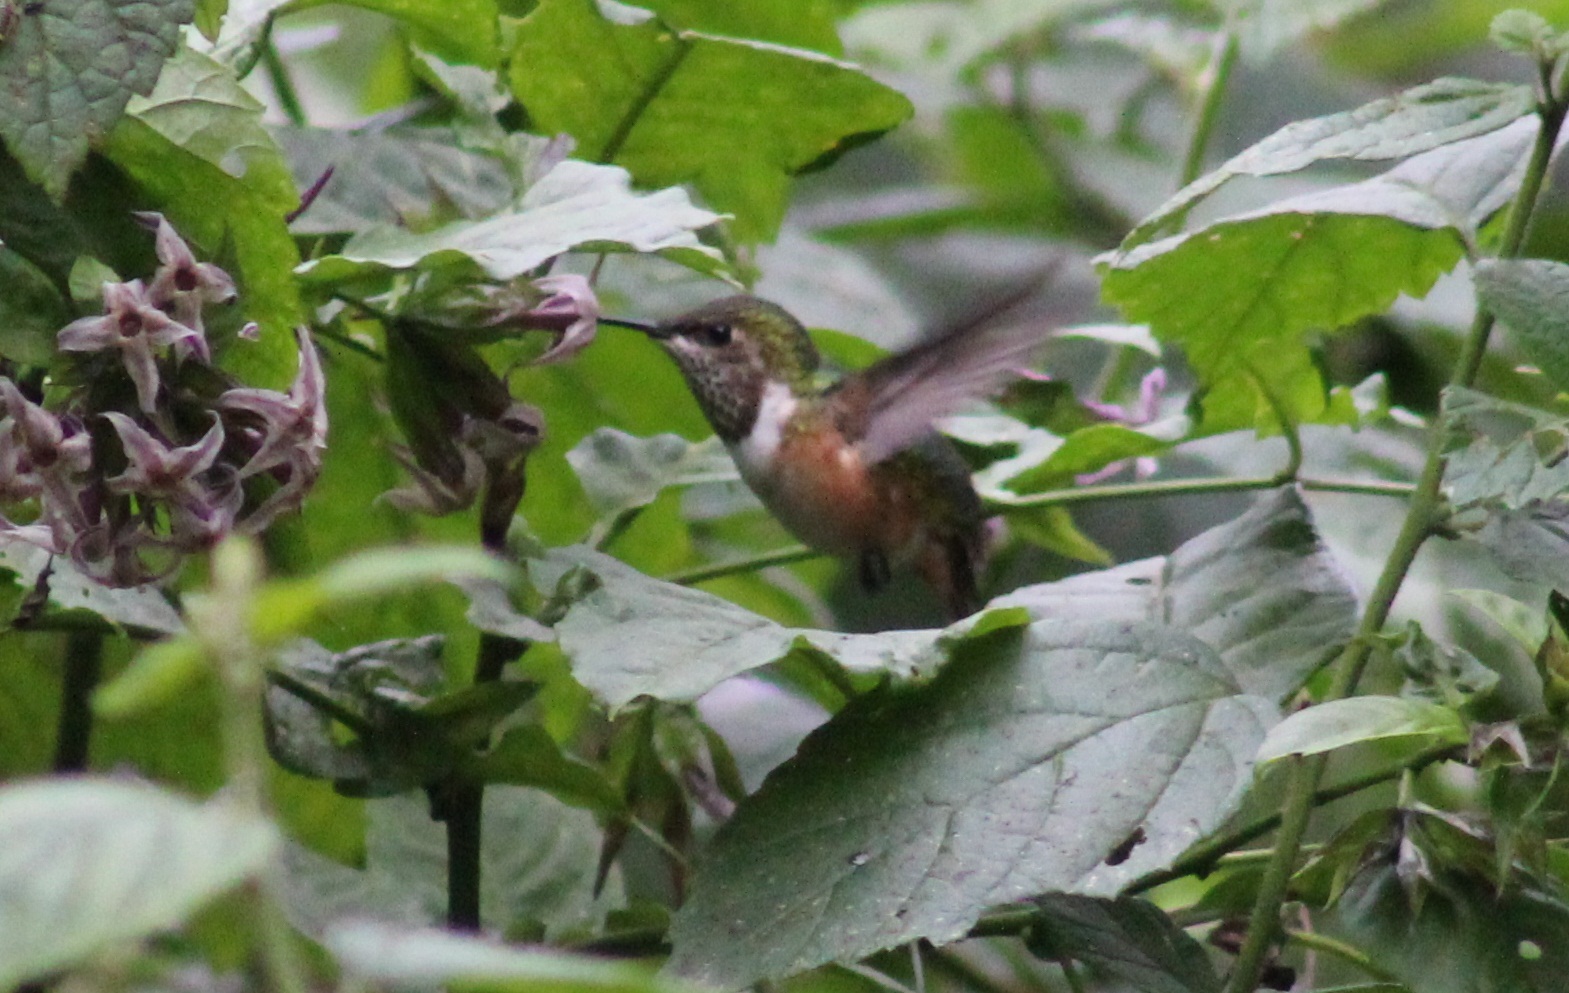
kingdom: Animalia
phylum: Chordata
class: Aves
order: Apodiformes
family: Trochilidae
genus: Selasphorus
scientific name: Selasphorus heloisa
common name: Bumblebee hummingbird
